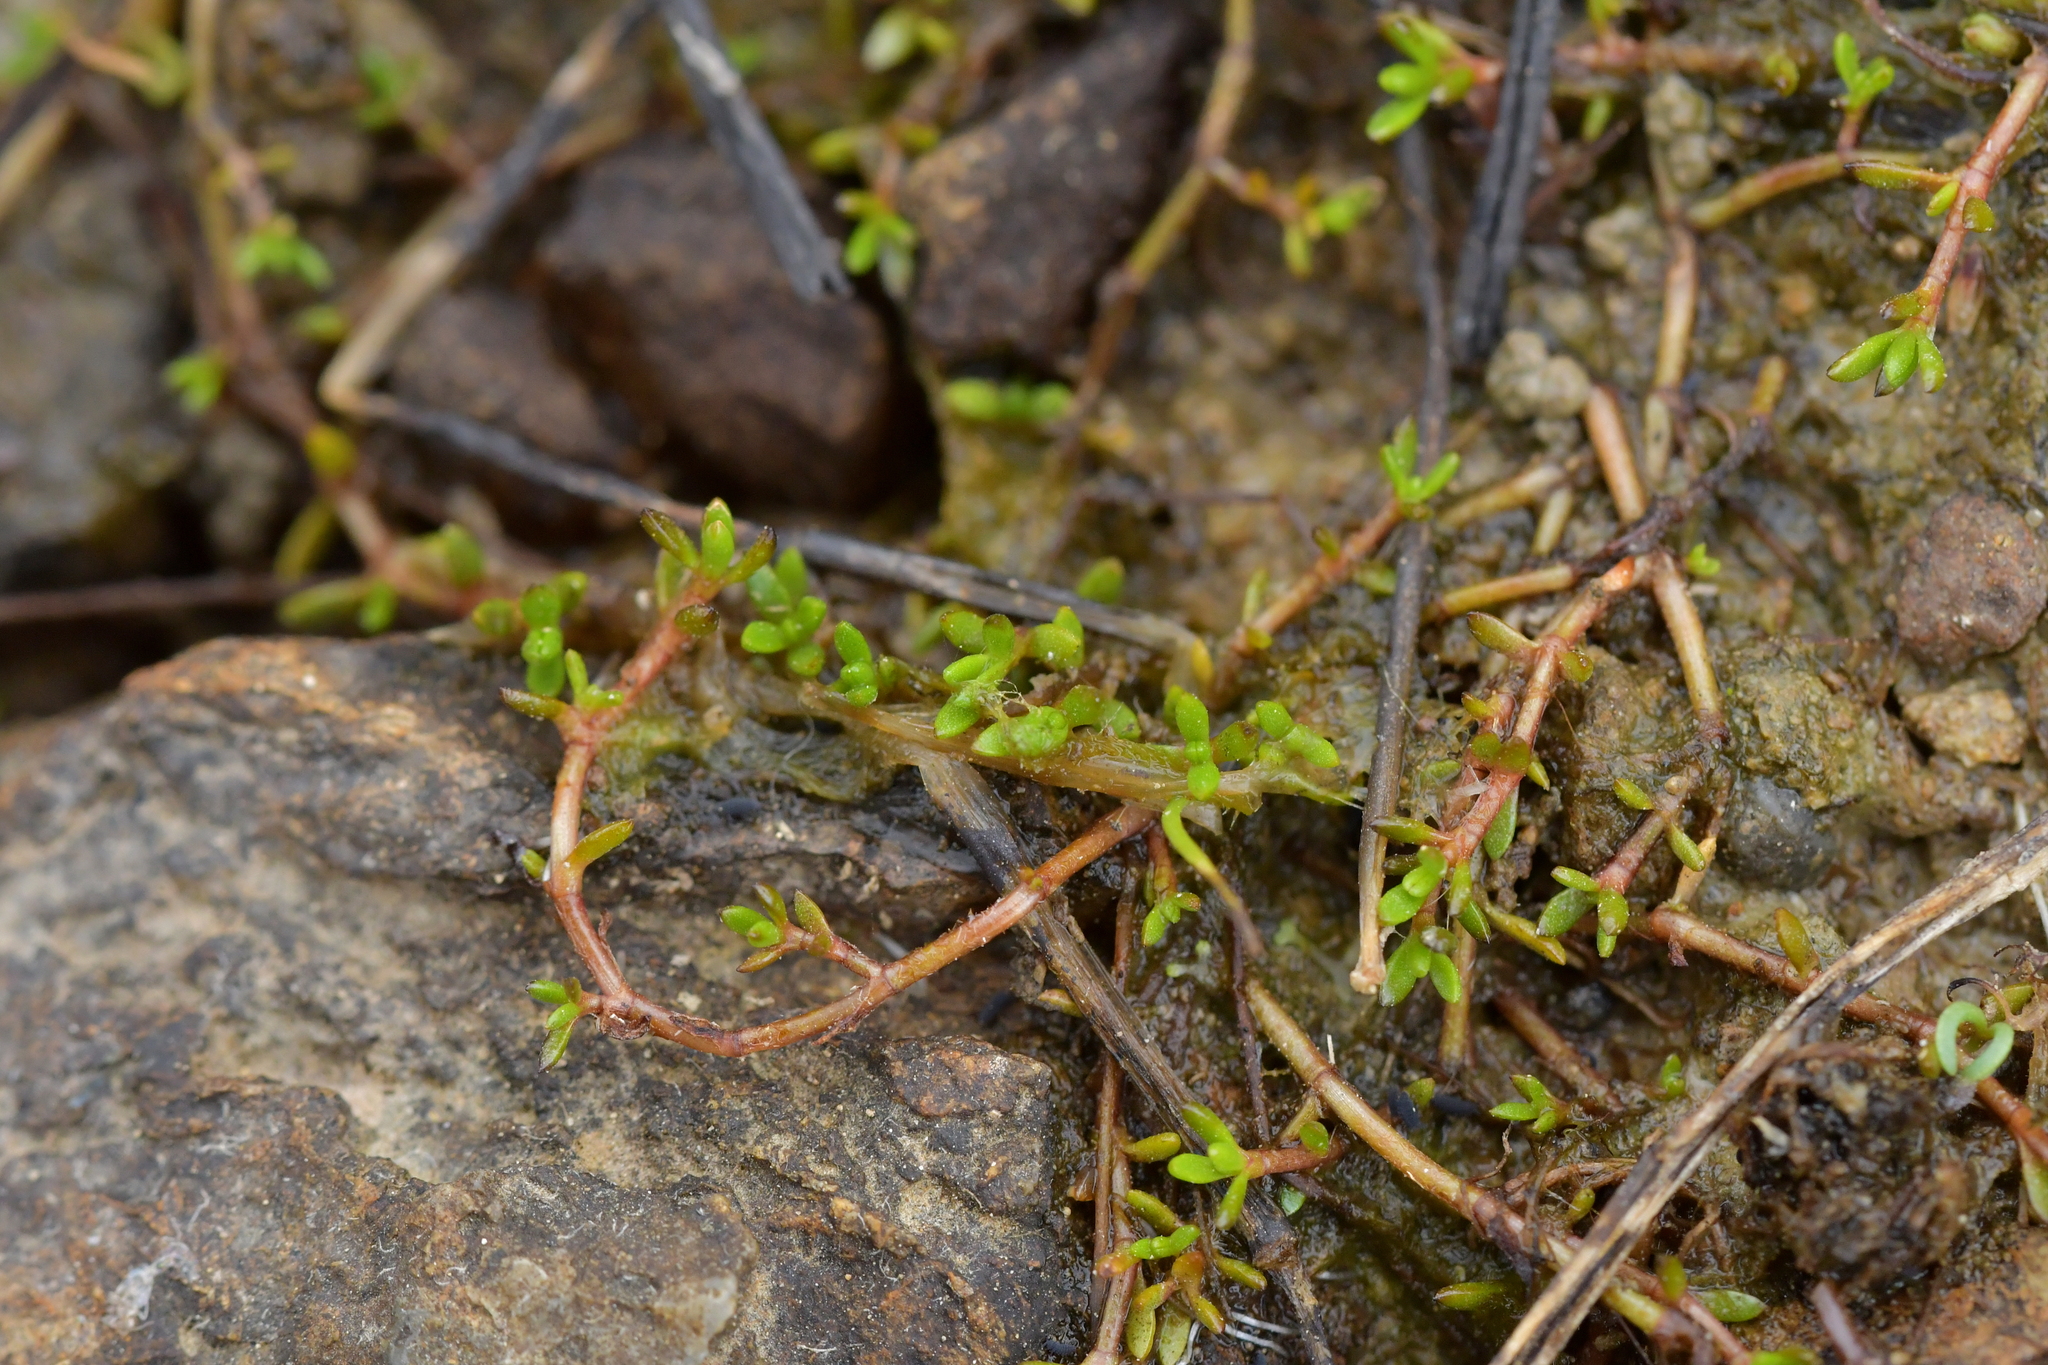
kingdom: Plantae
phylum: Tracheophyta
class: Magnoliopsida
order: Saxifragales
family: Crassulaceae
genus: Crassula
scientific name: Crassula sinclairii
